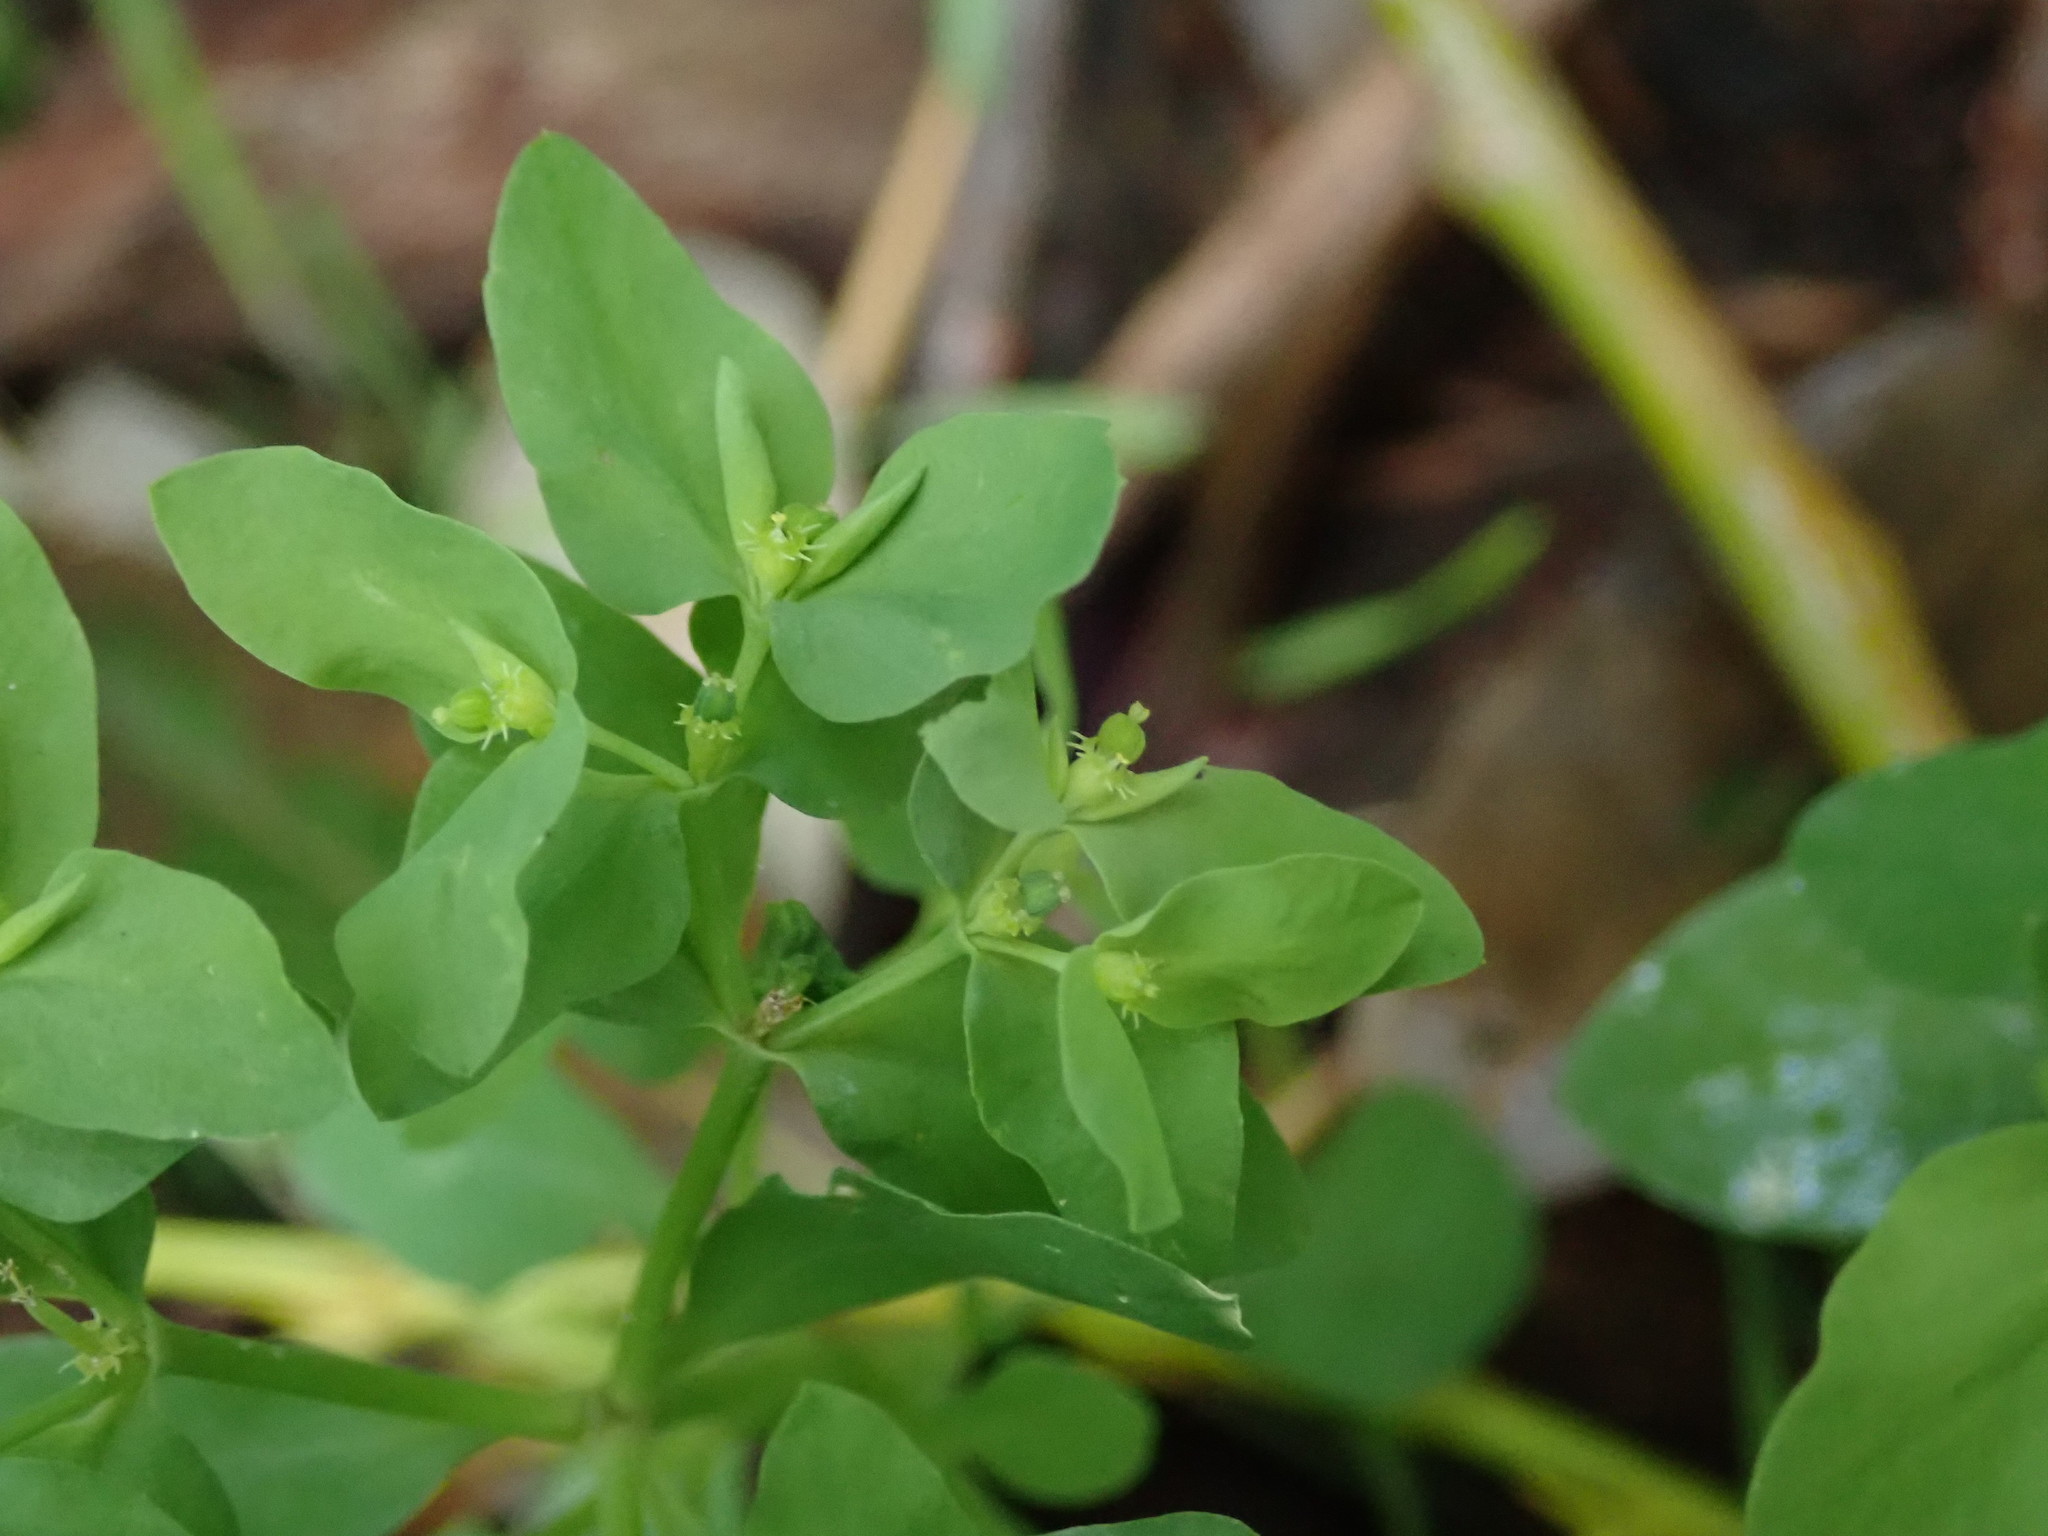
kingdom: Plantae
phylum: Tracheophyta
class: Magnoliopsida
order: Malpighiales
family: Euphorbiaceae
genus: Euphorbia
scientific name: Euphorbia peplus
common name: Petty spurge
